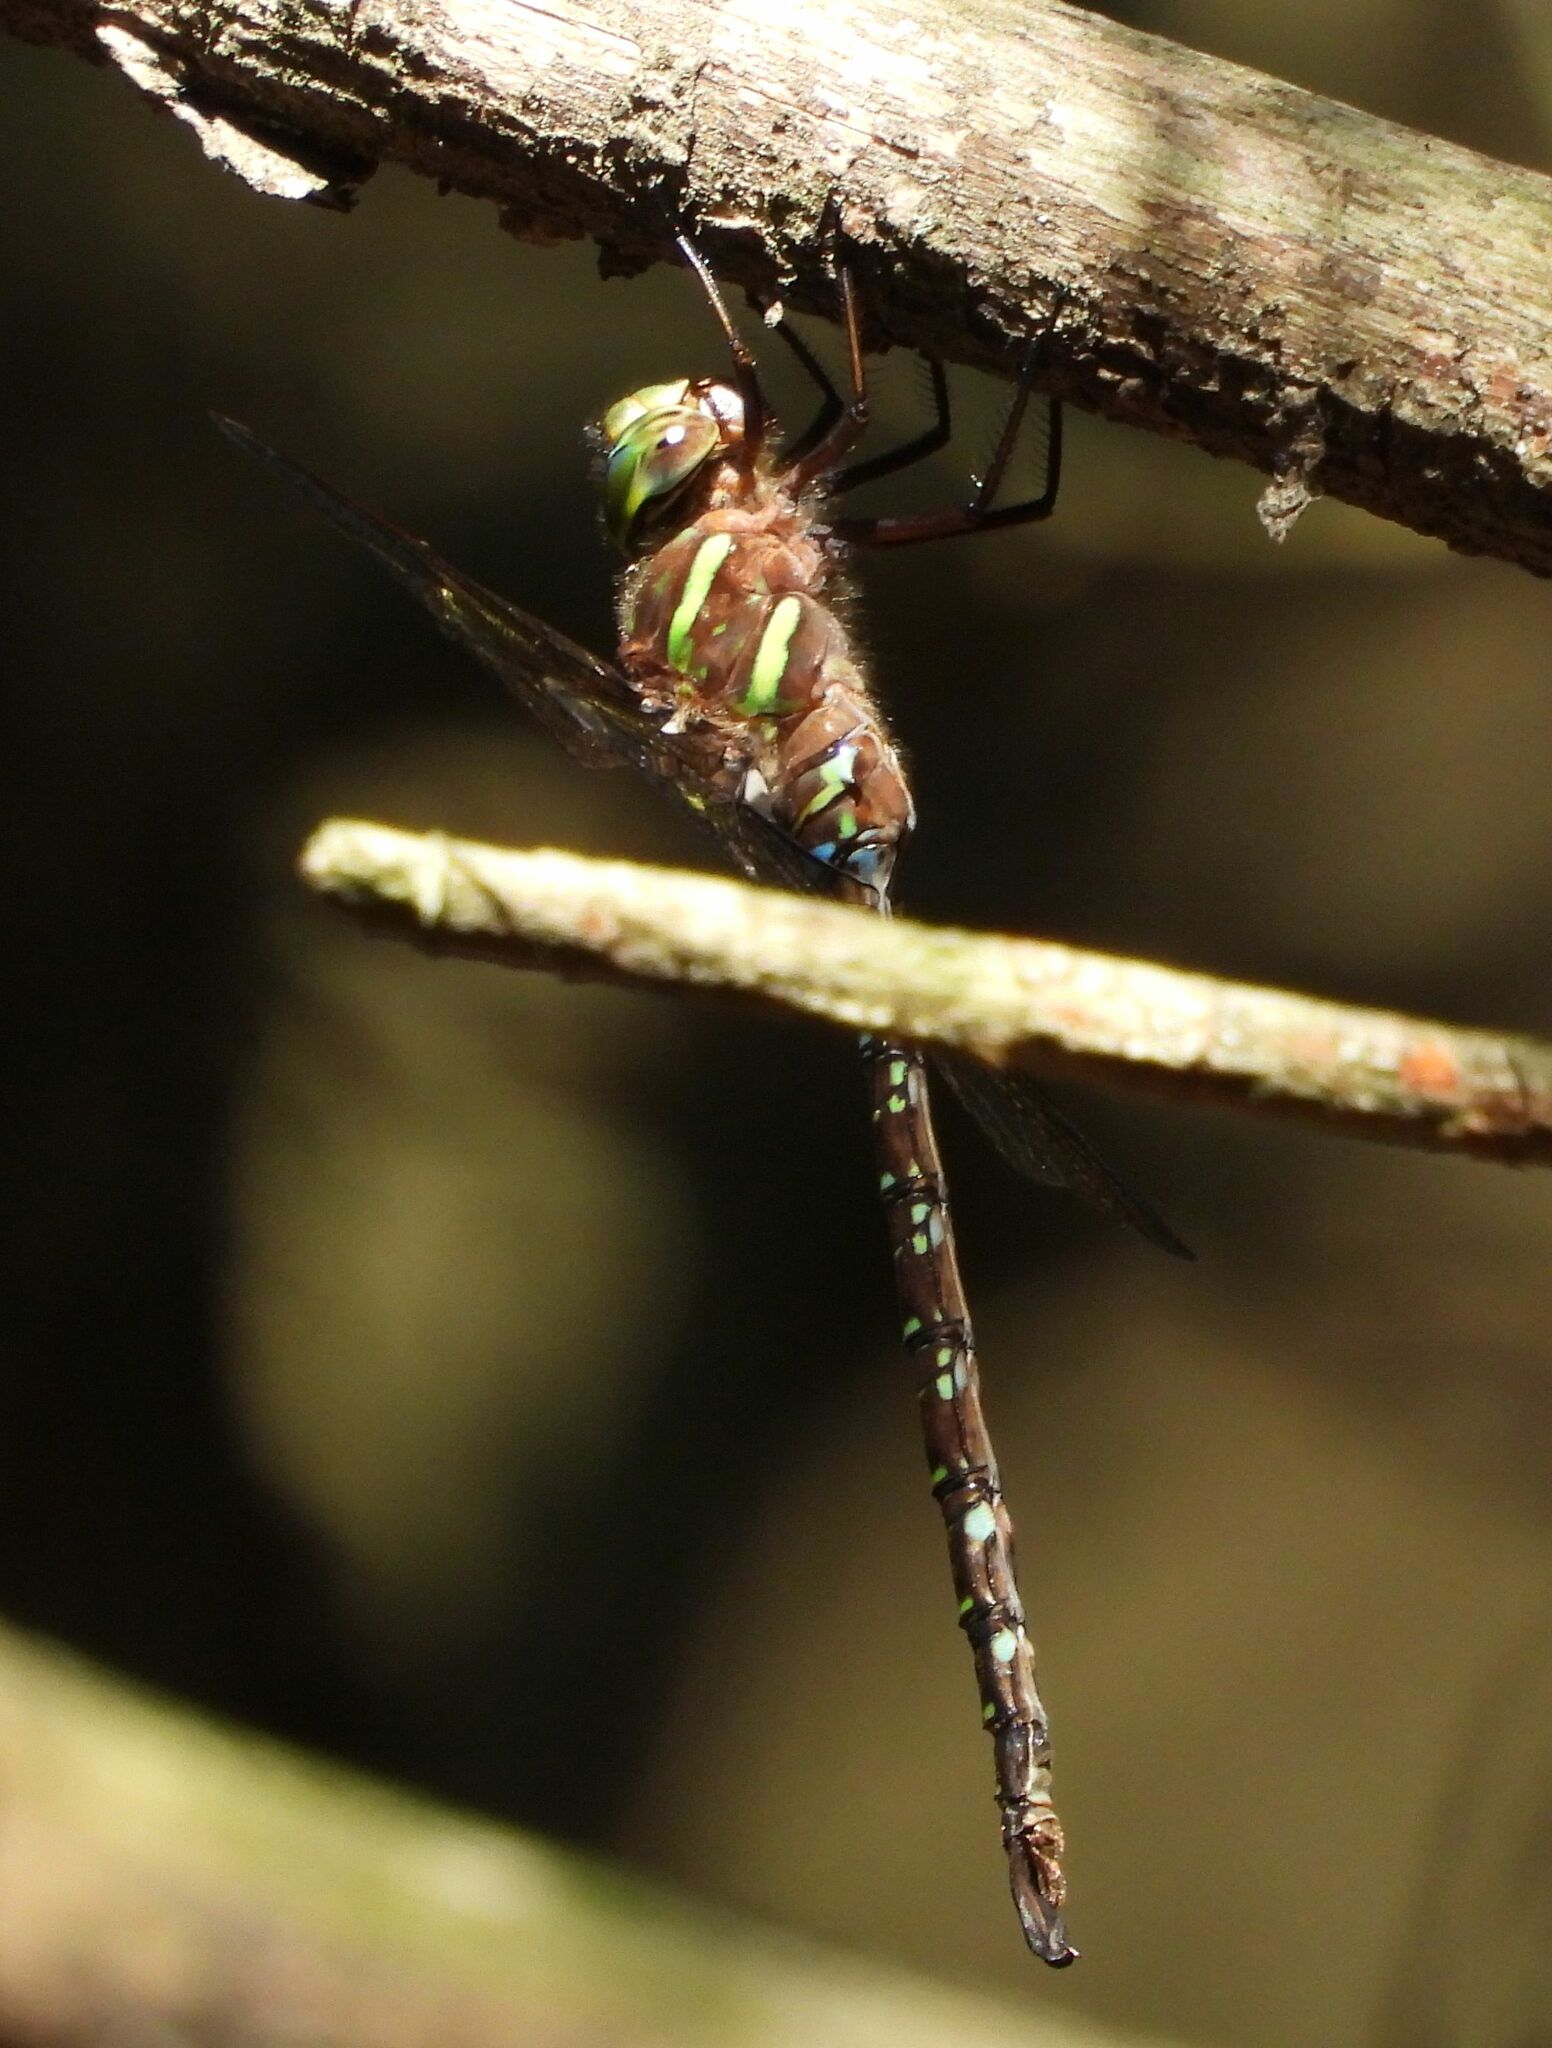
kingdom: Animalia
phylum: Arthropoda
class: Insecta
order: Odonata
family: Aeshnidae
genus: Aeshna
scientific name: Aeshna umbrosa
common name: Shadow darner
